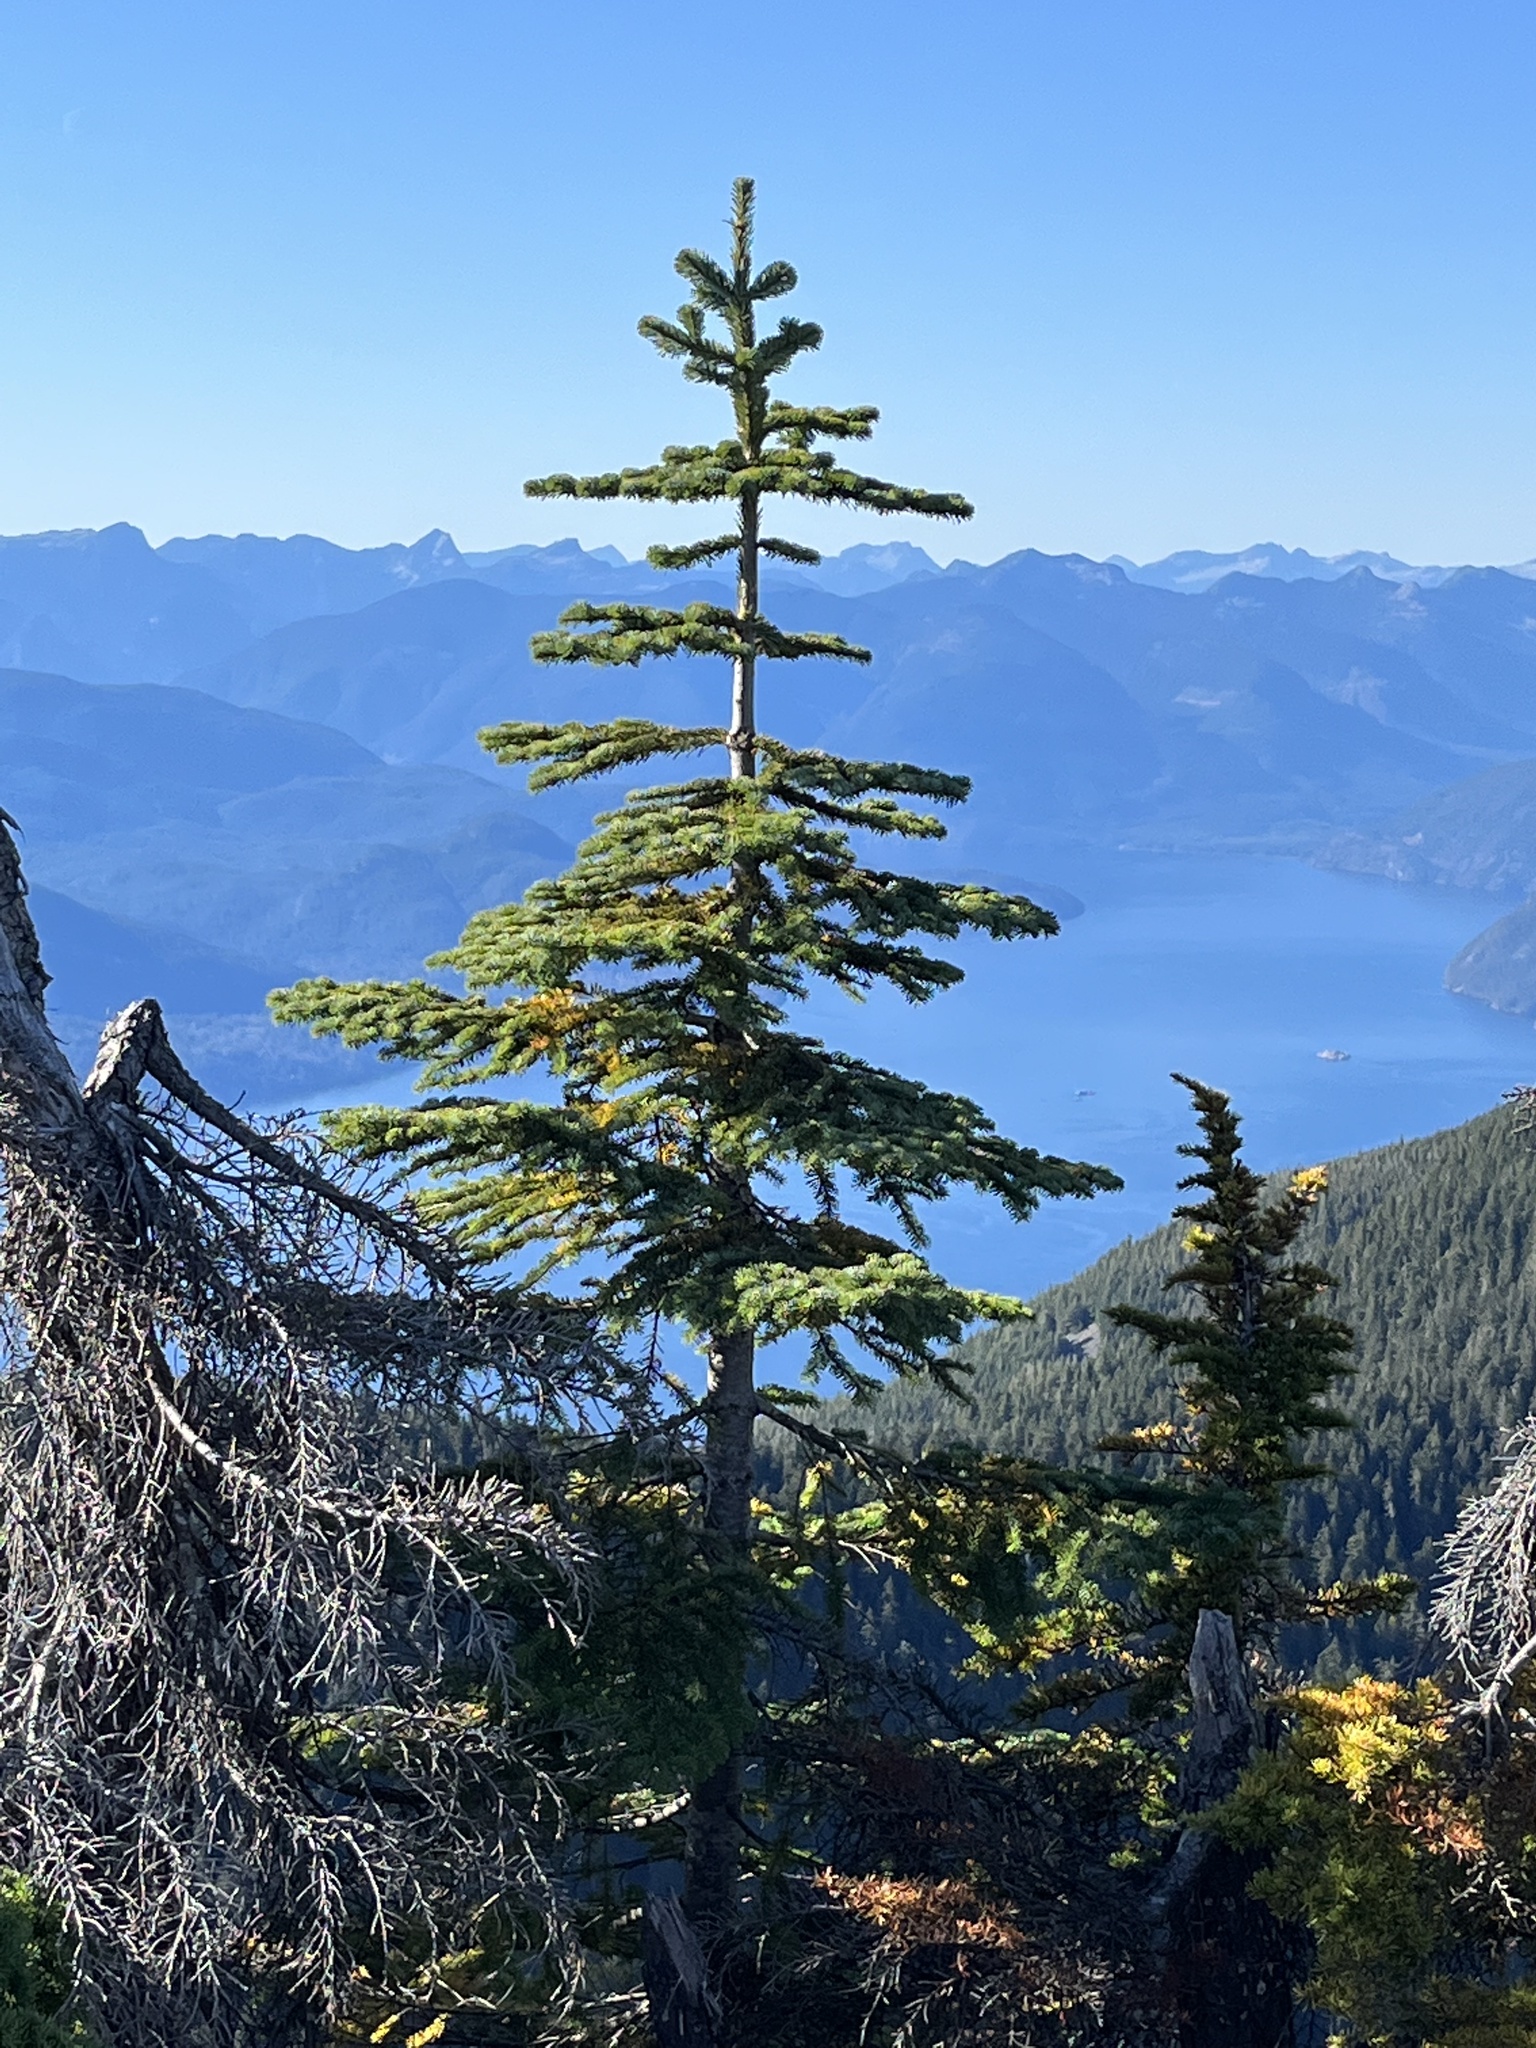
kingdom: Plantae
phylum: Tracheophyta
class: Pinopsida
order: Pinales
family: Pinaceae
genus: Abies
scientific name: Abies amabilis
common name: Pacific silver fir
